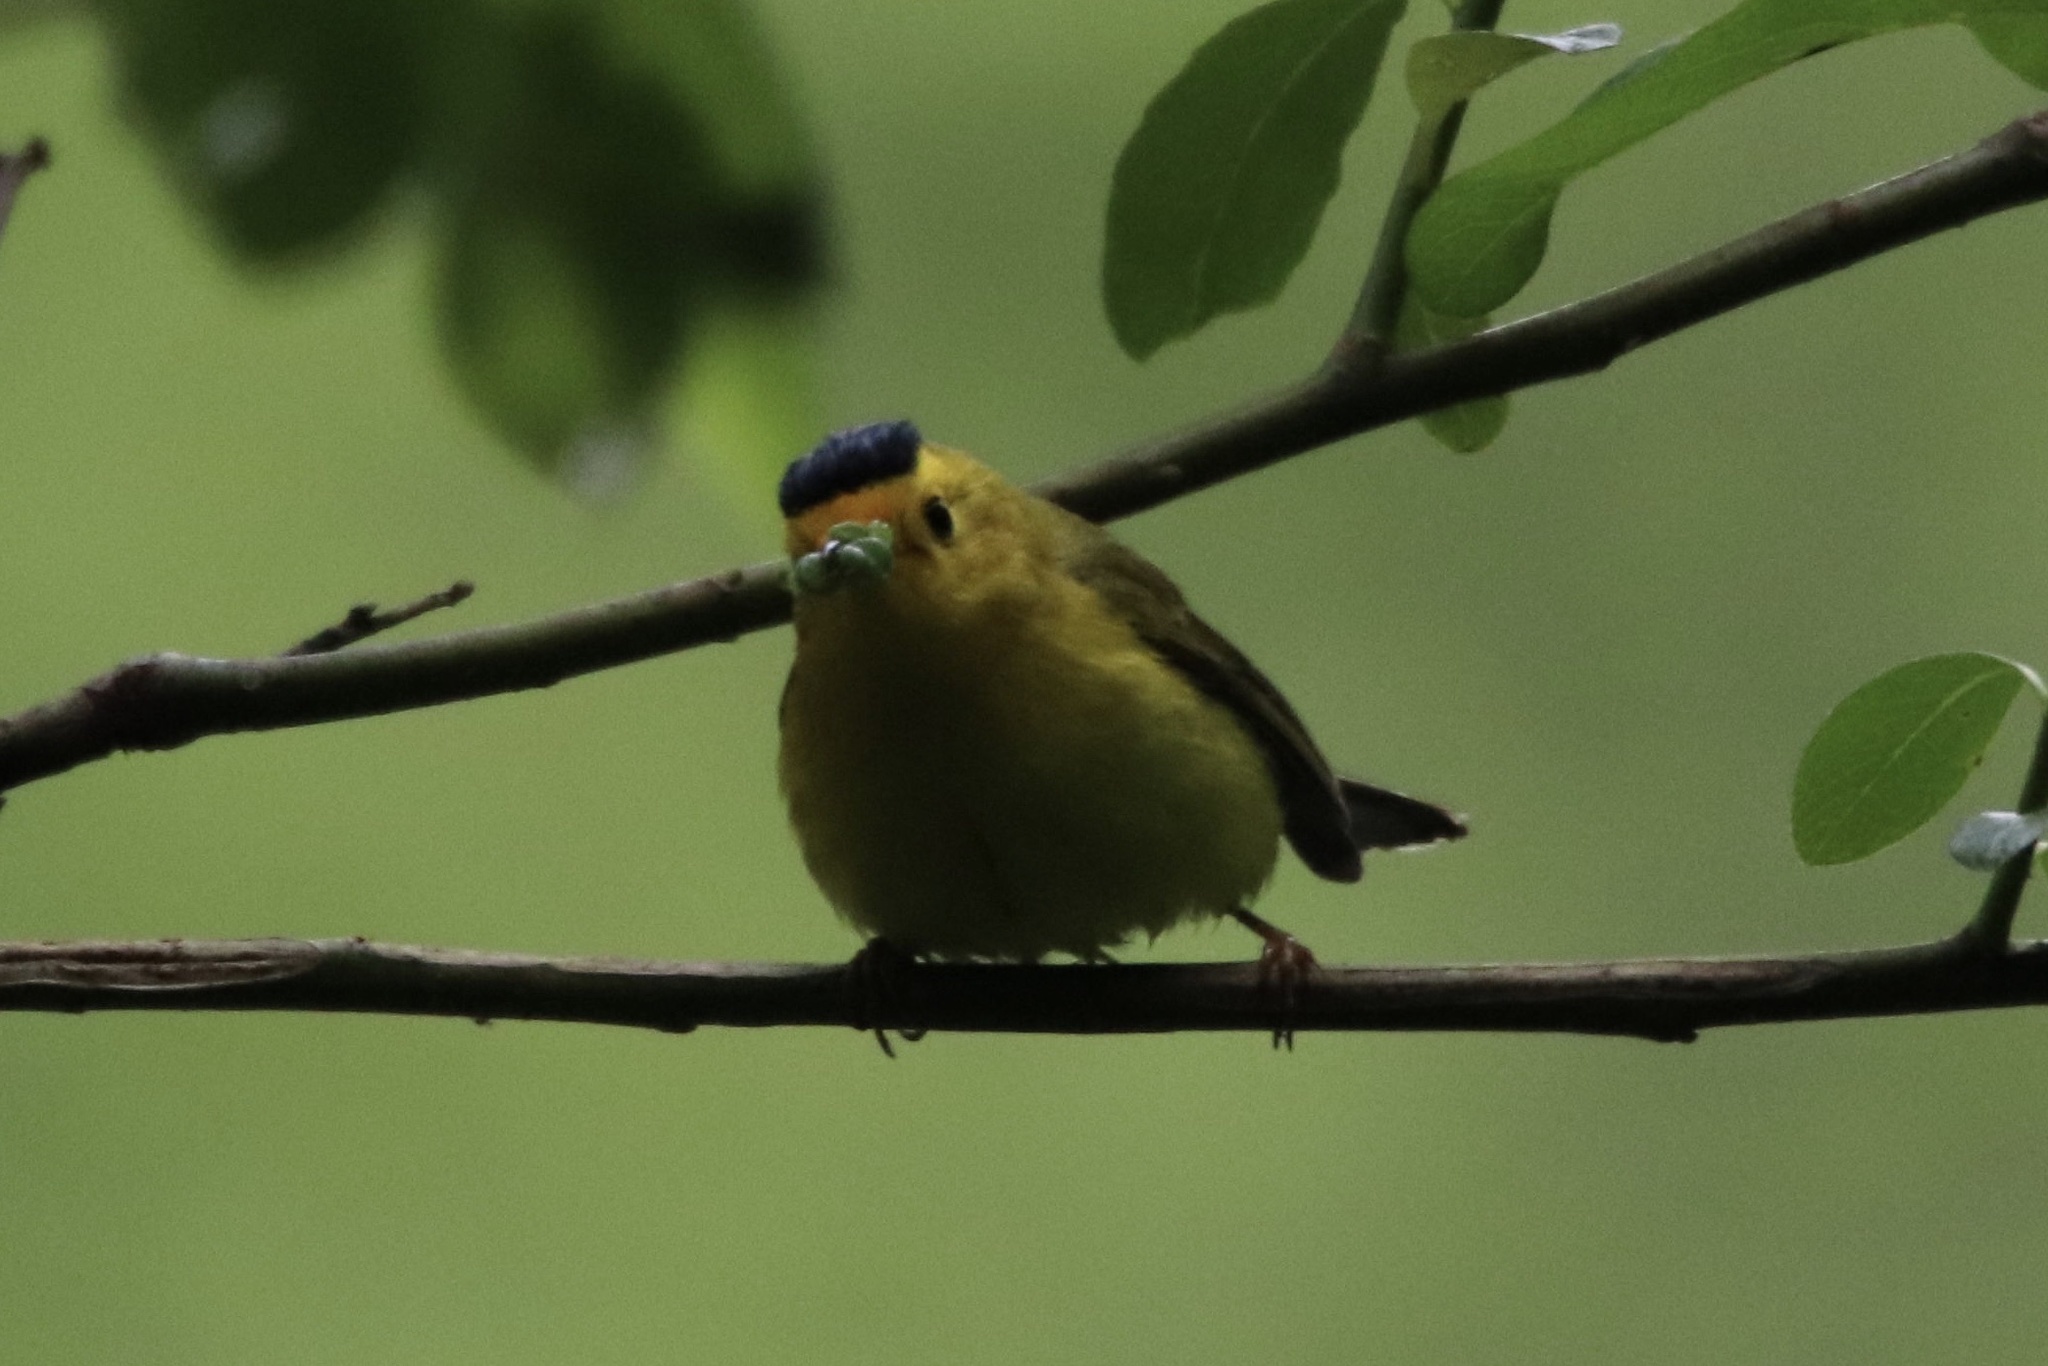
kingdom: Animalia
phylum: Chordata
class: Aves
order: Passeriformes
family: Parulidae
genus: Cardellina
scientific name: Cardellina pusilla
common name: Wilson's warbler
